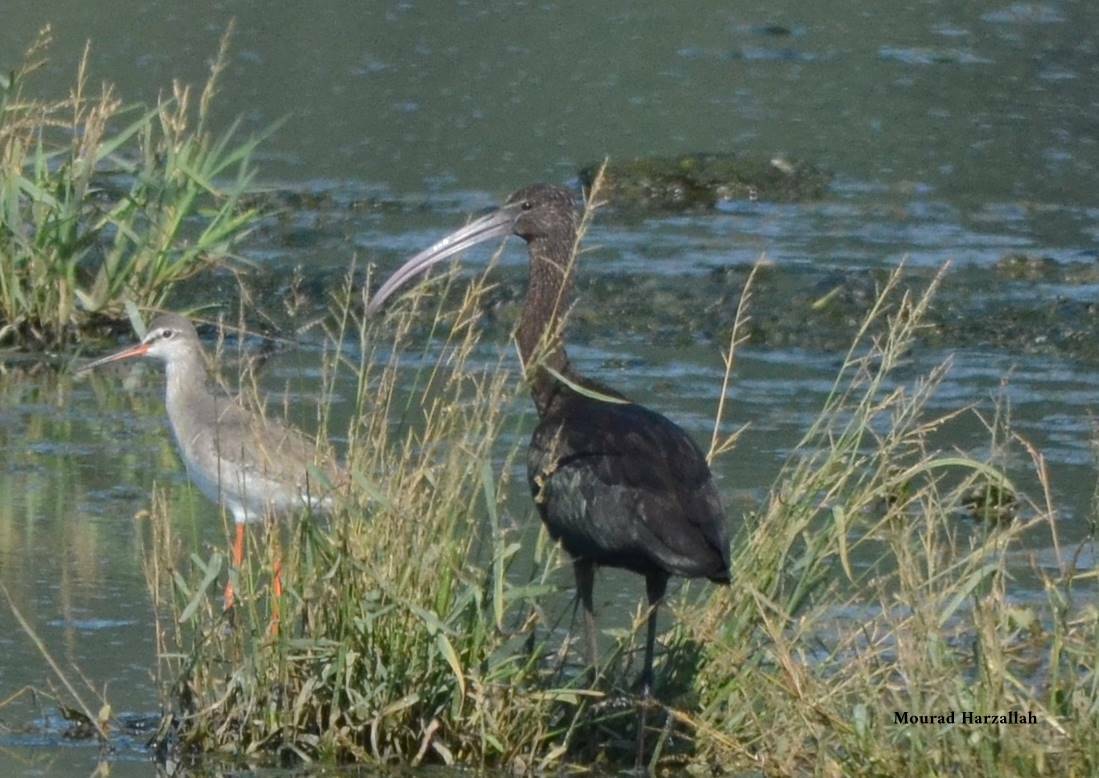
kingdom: Animalia
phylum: Chordata
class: Aves
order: Pelecaniformes
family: Threskiornithidae
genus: Plegadis
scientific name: Plegadis falcinellus
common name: Glossy ibis
